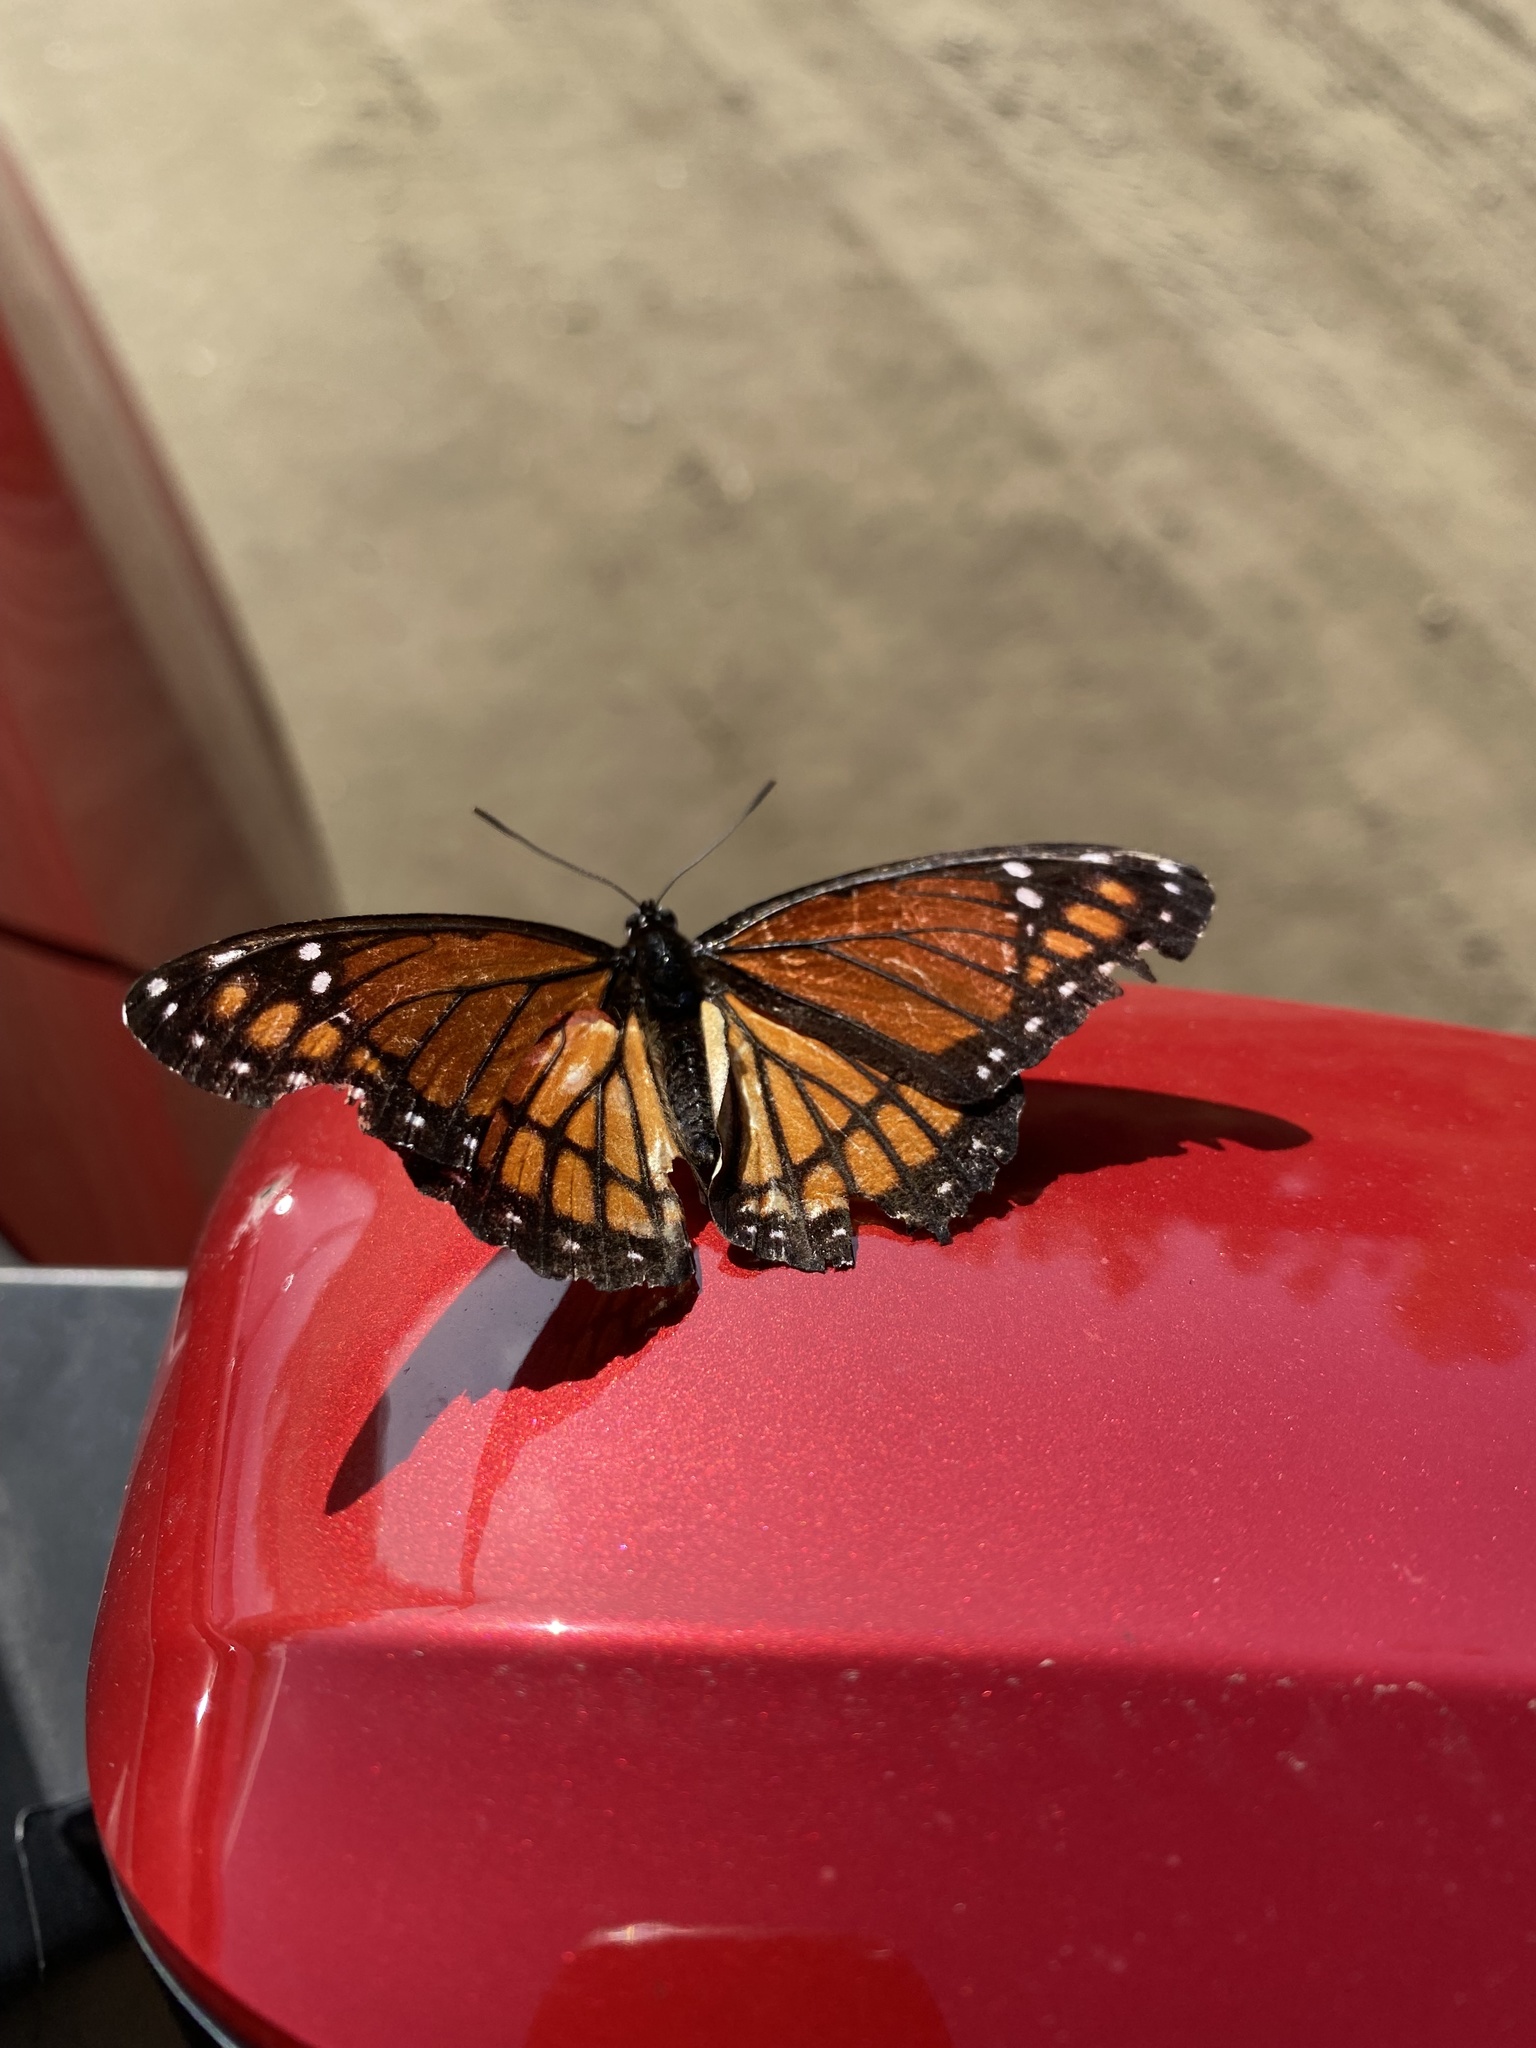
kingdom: Animalia
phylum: Arthropoda
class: Insecta
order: Lepidoptera
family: Nymphalidae
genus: Limenitis
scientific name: Limenitis archippus
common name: Viceroy
